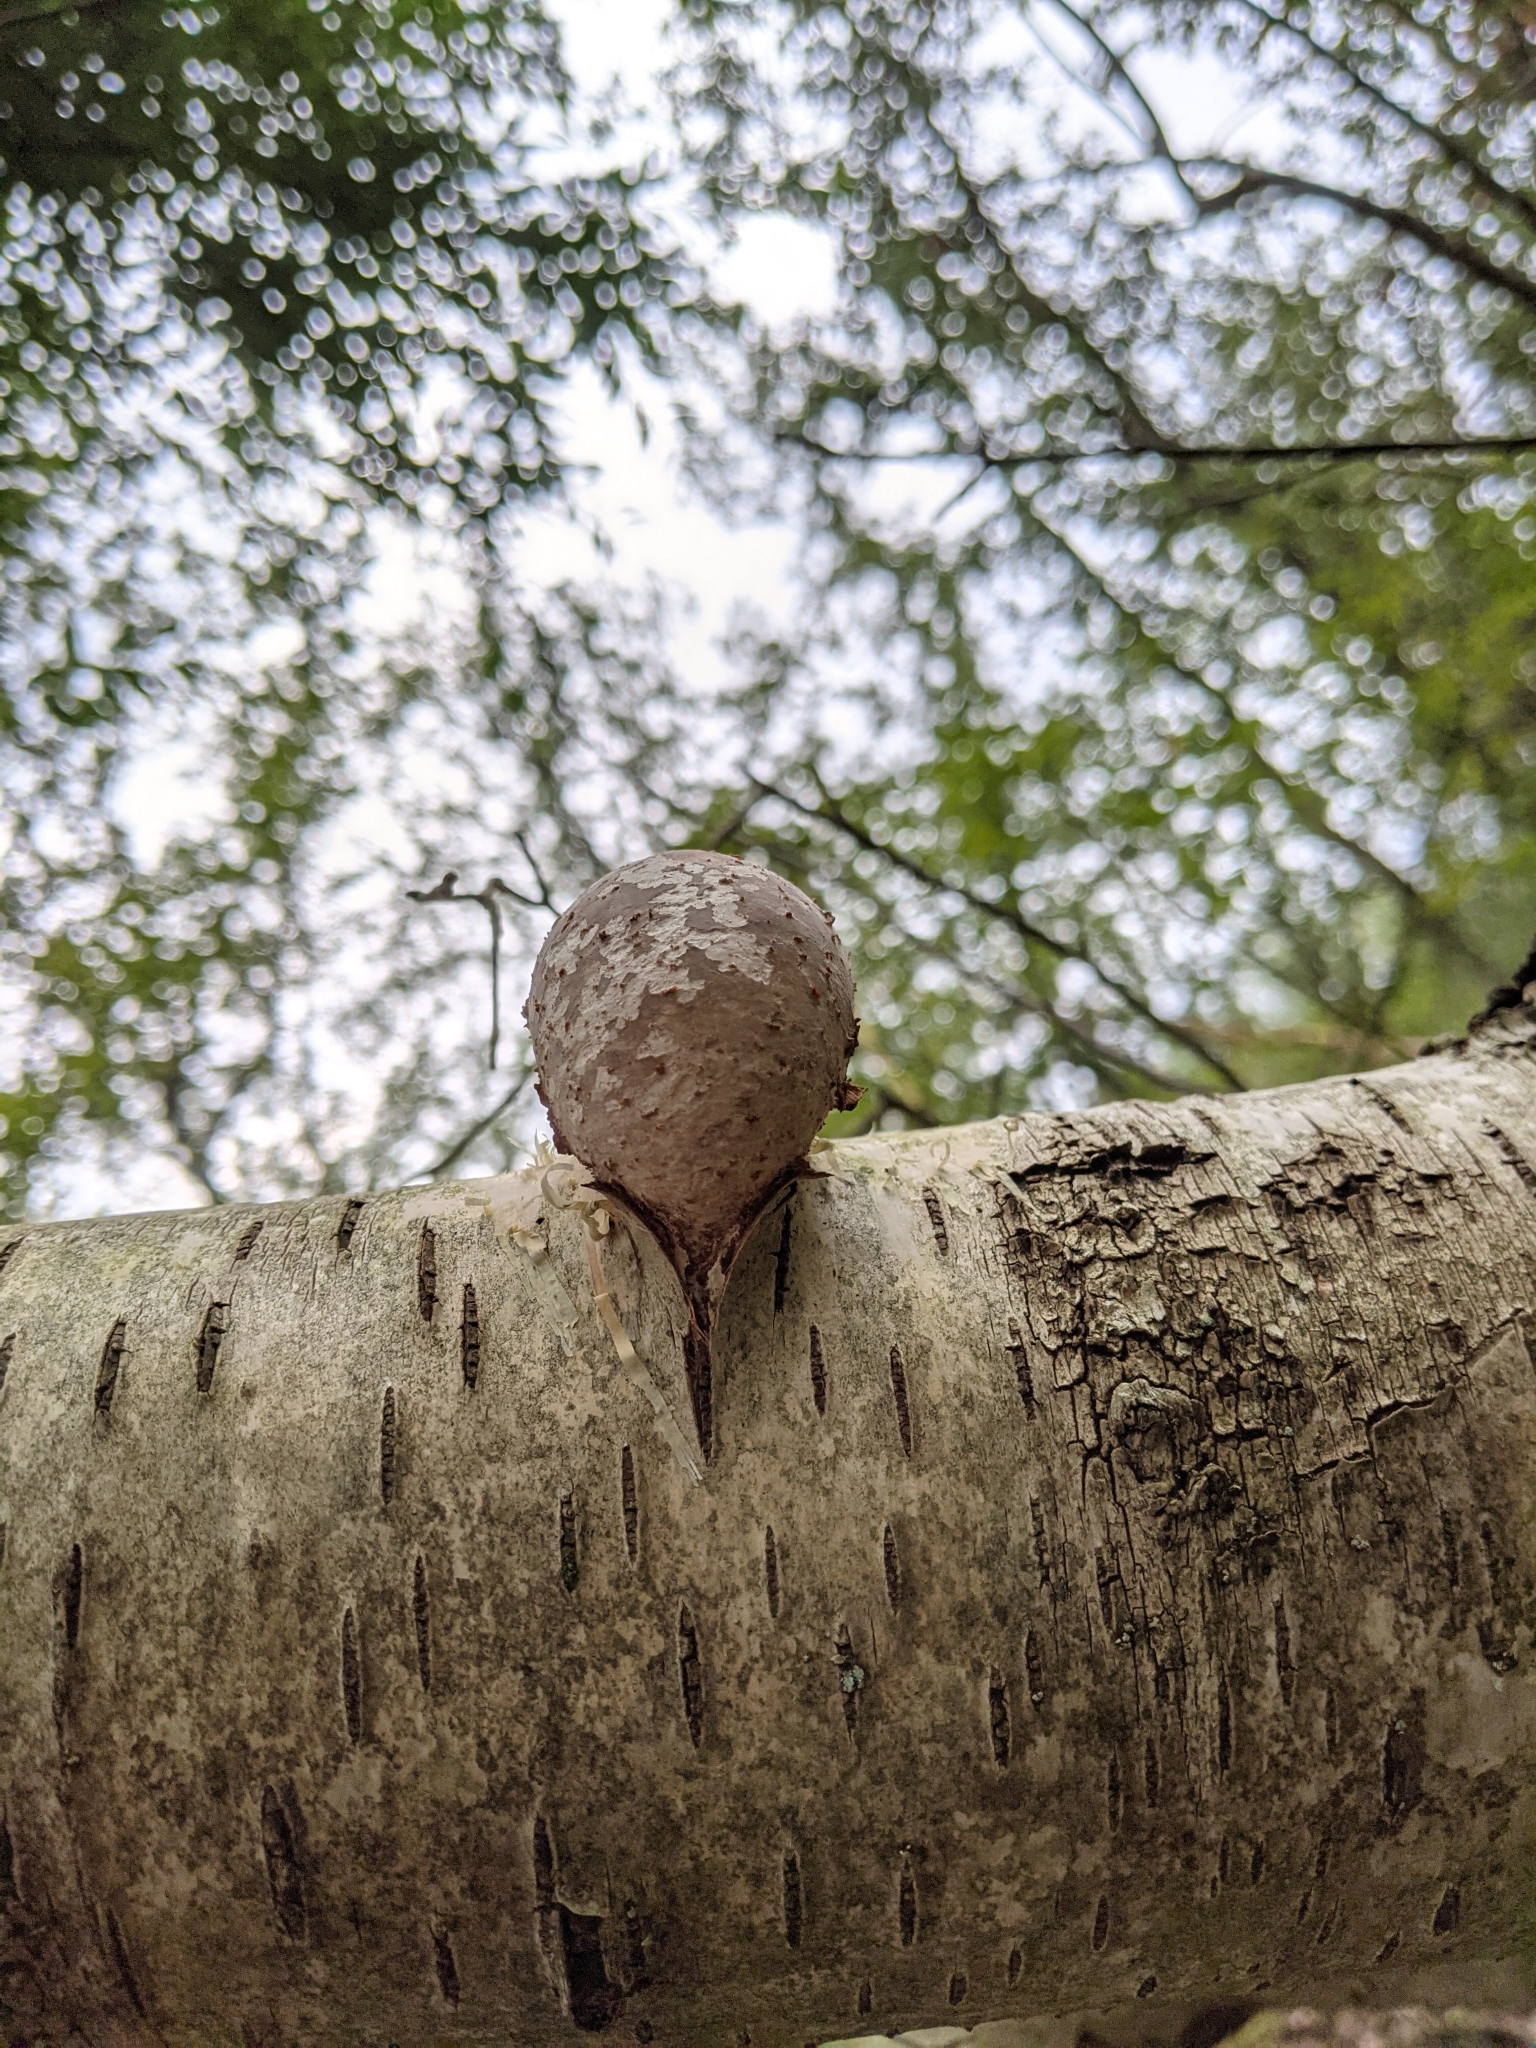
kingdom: Fungi
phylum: Basidiomycota
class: Agaricomycetes
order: Polyporales
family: Fomitopsidaceae
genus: Fomitopsis
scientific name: Fomitopsis betulina
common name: Birch polypore
